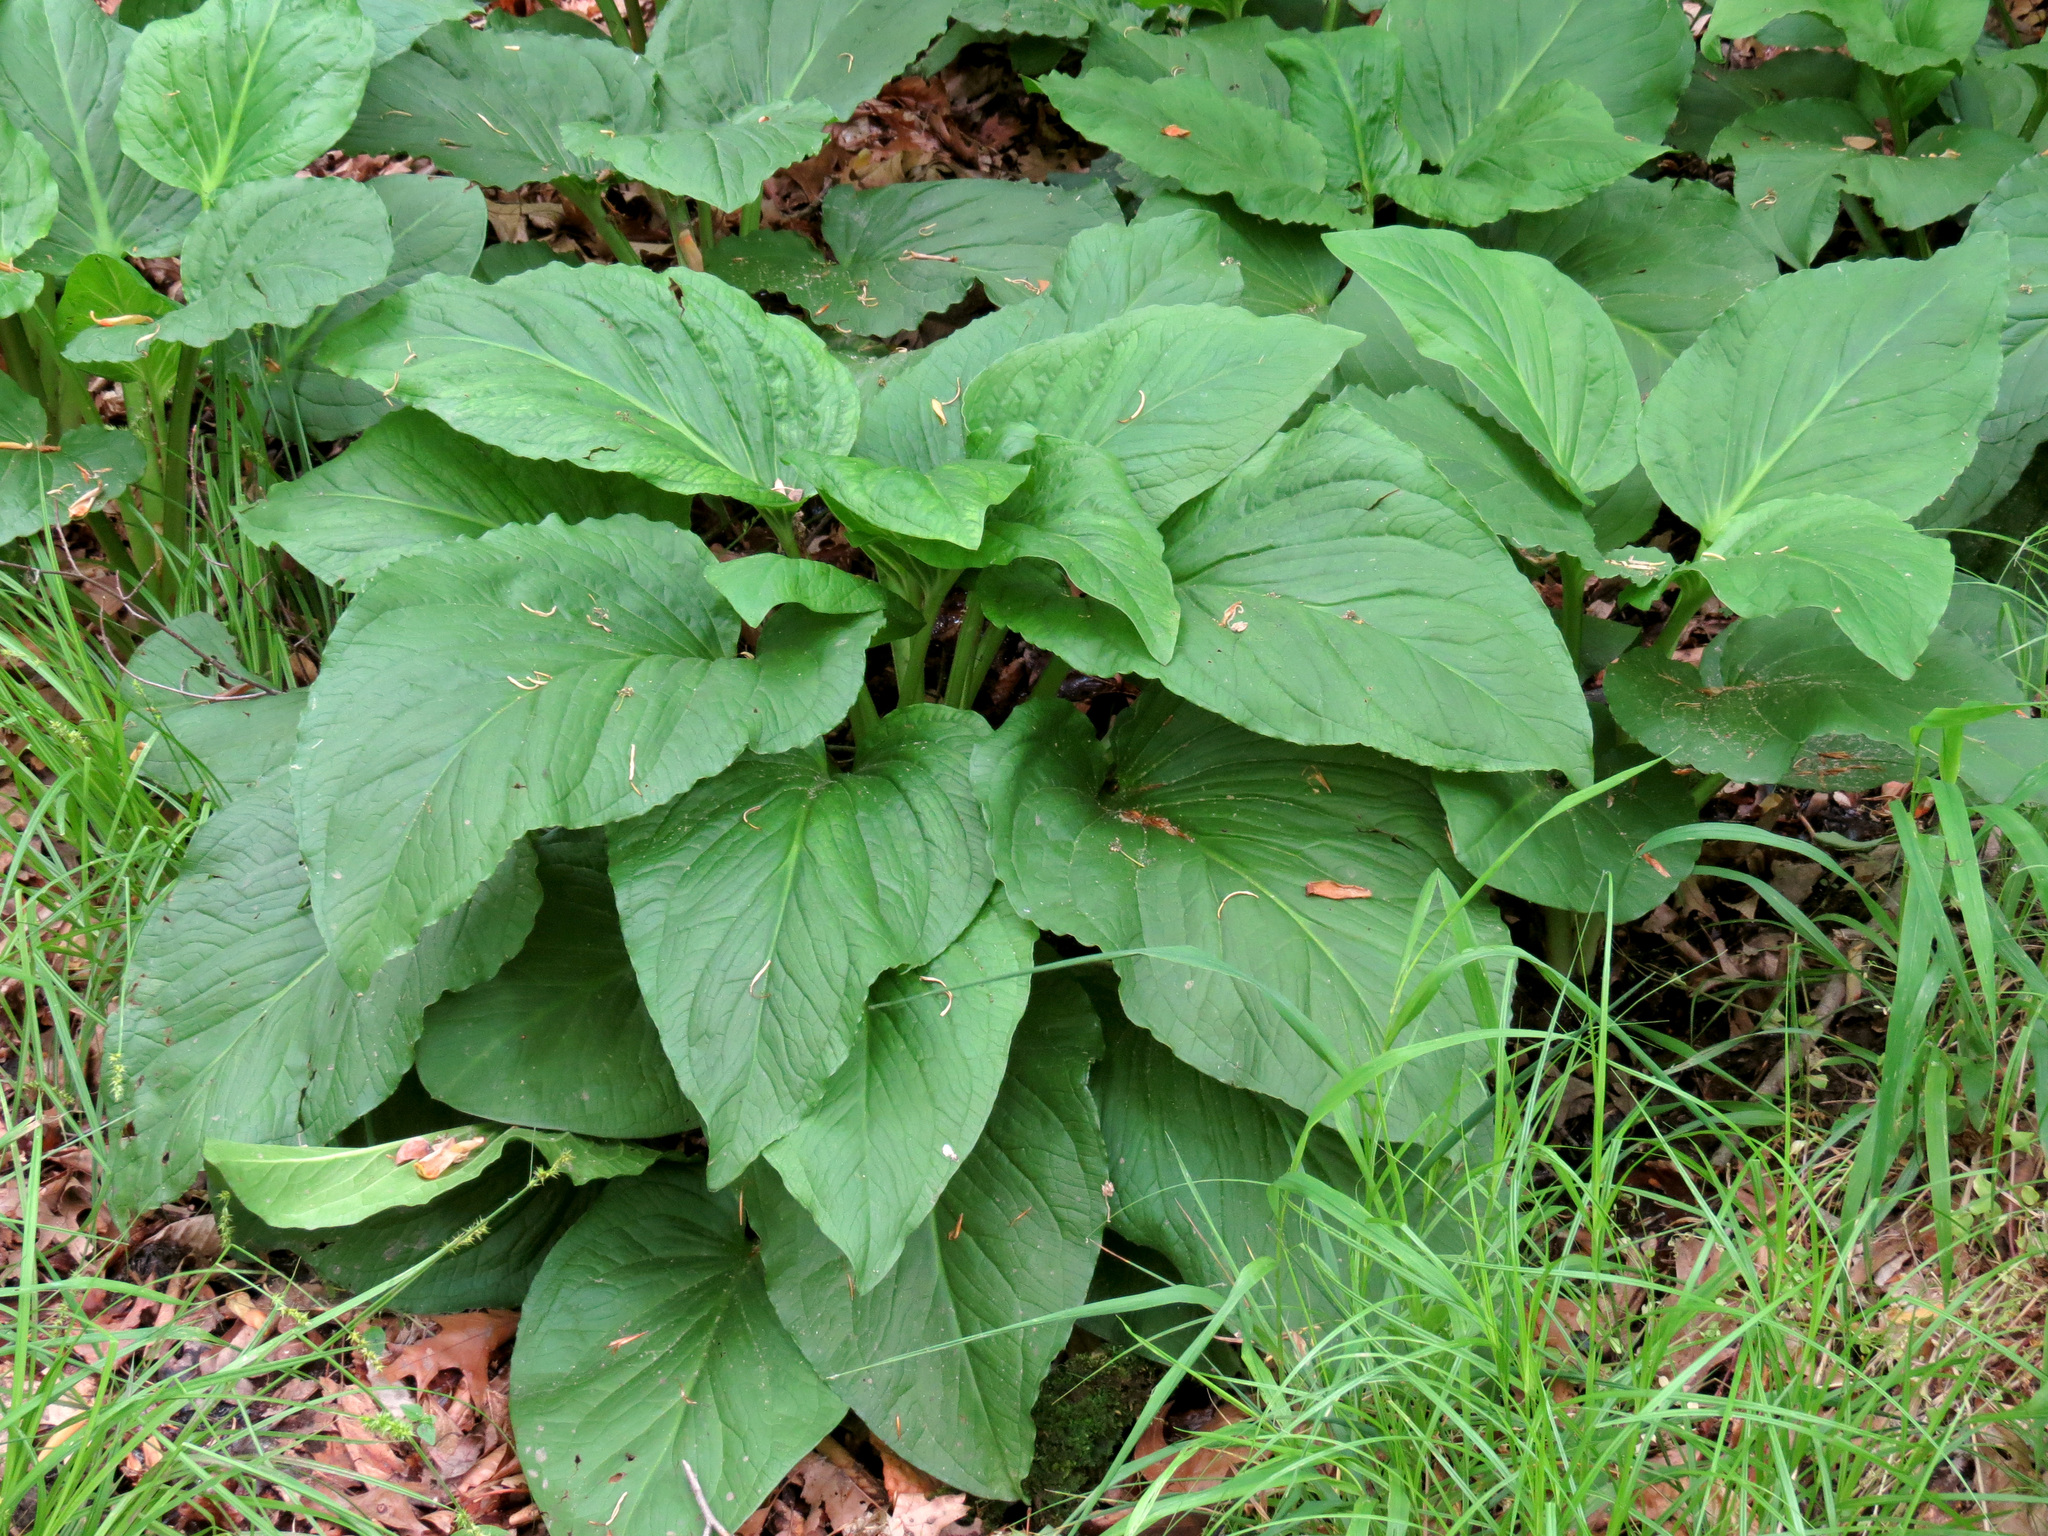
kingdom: Plantae
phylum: Tracheophyta
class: Liliopsida
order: Alismatales
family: Araceae
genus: Symplocarpus
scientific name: Symplocarpus foetidus
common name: Eastern skunk cabbage
